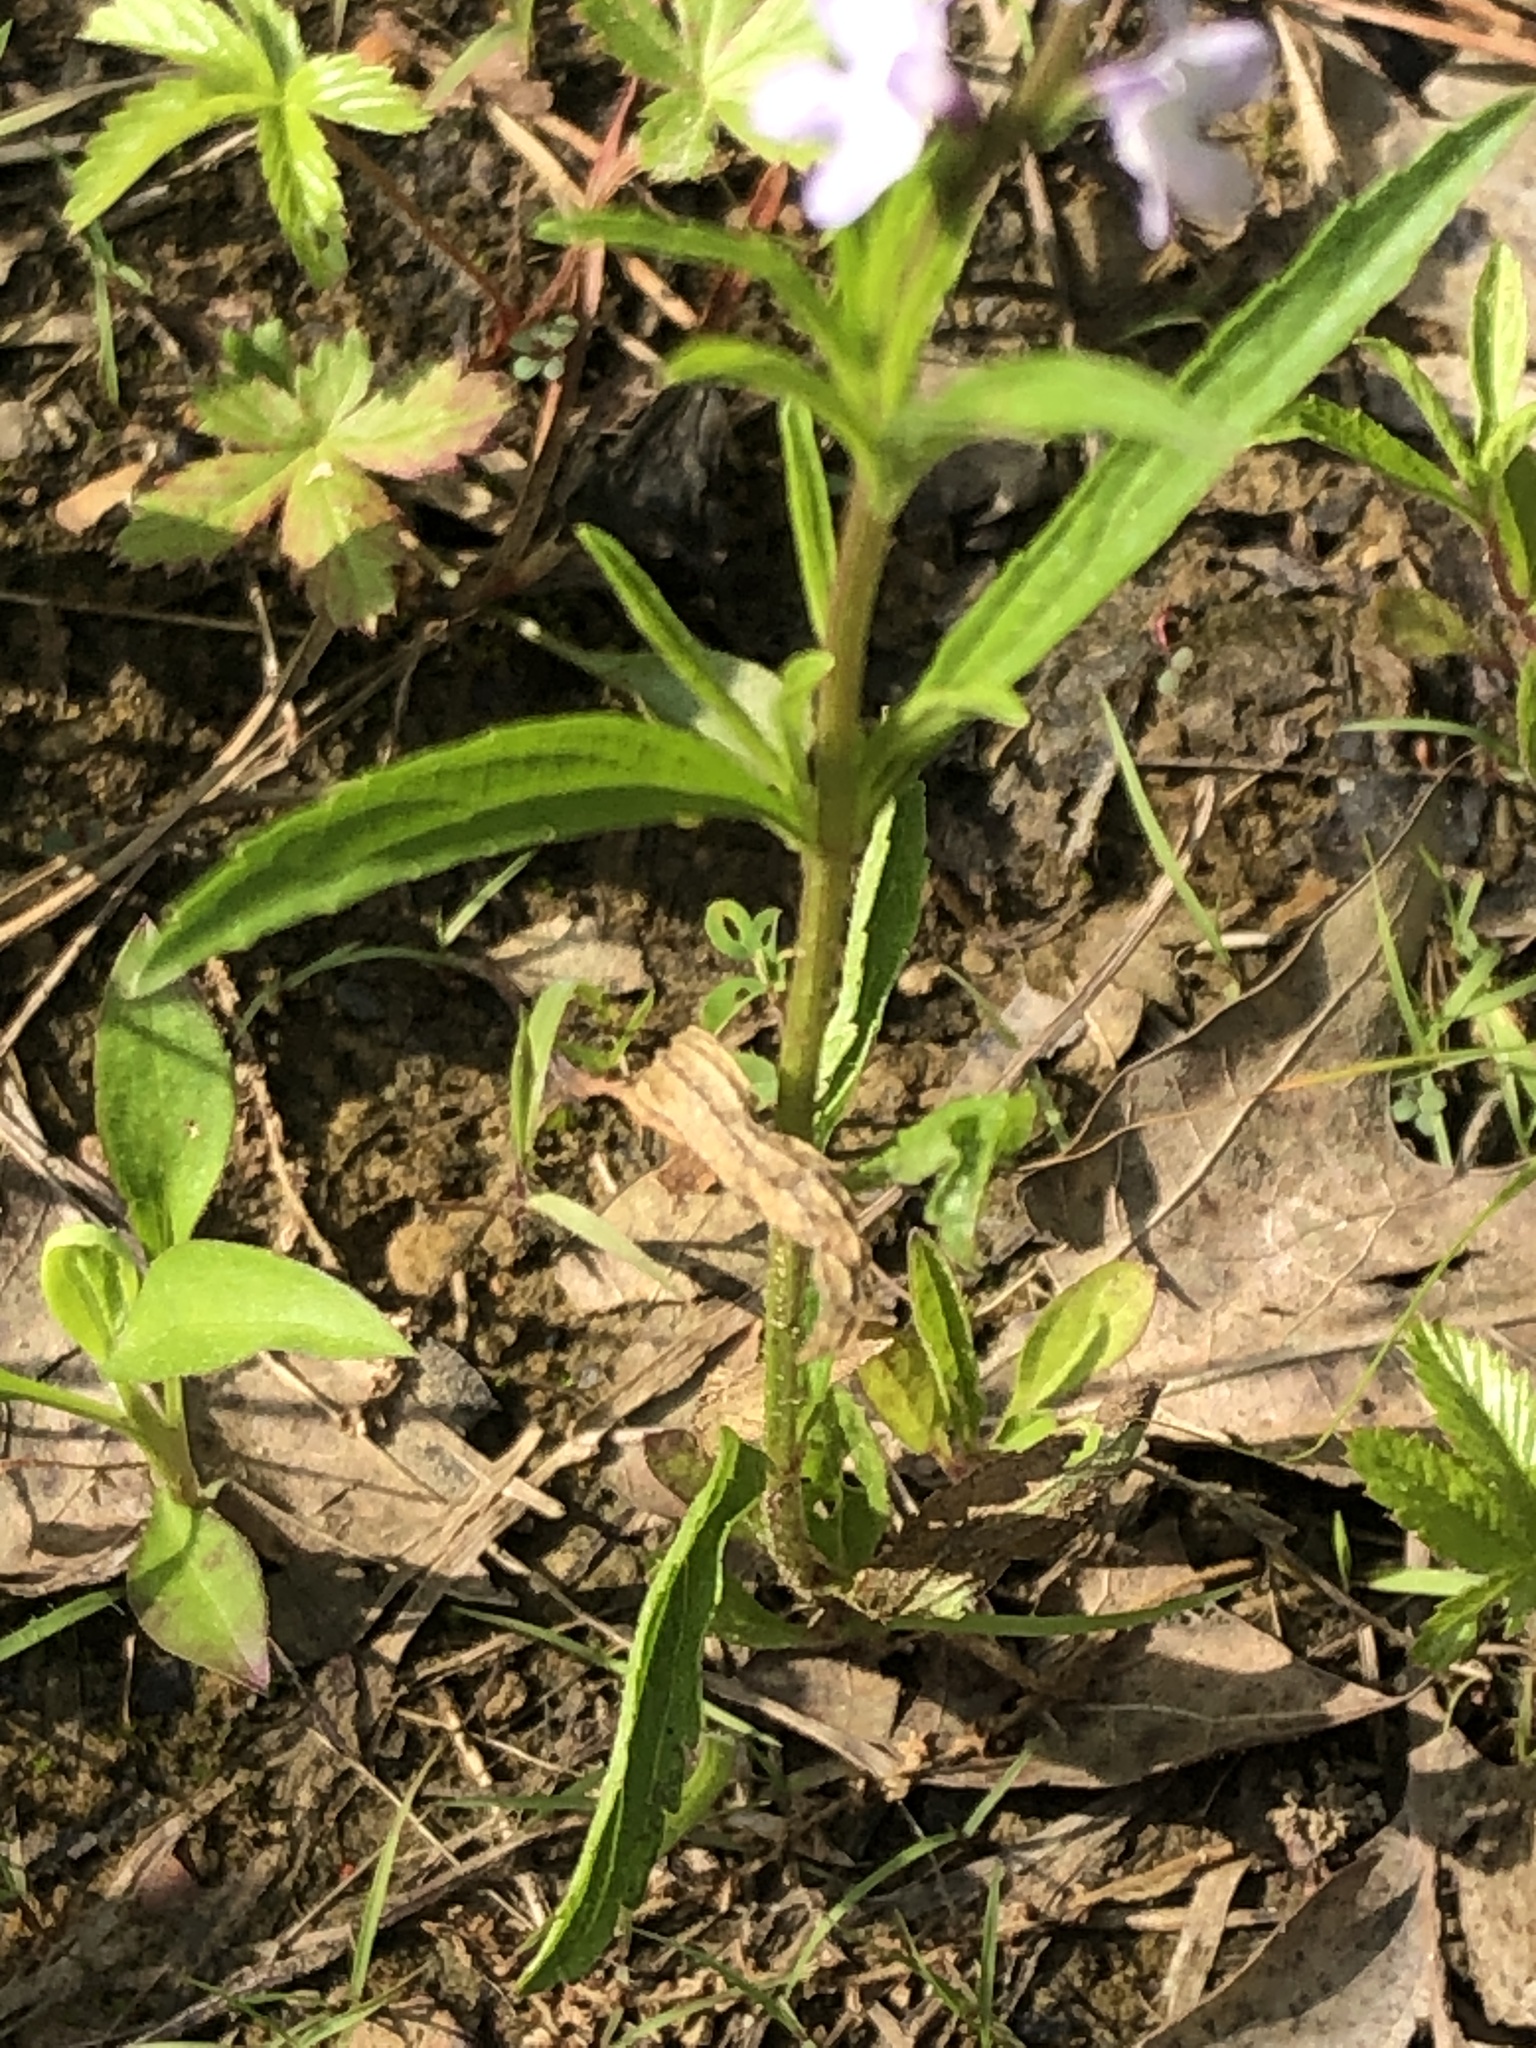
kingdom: Plantae
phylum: Tracheophyta
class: Magnoliopsida
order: Lamiales
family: Verbenaceae
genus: Verbena
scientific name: Verbena simplex
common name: Narrow-leaf vervain
